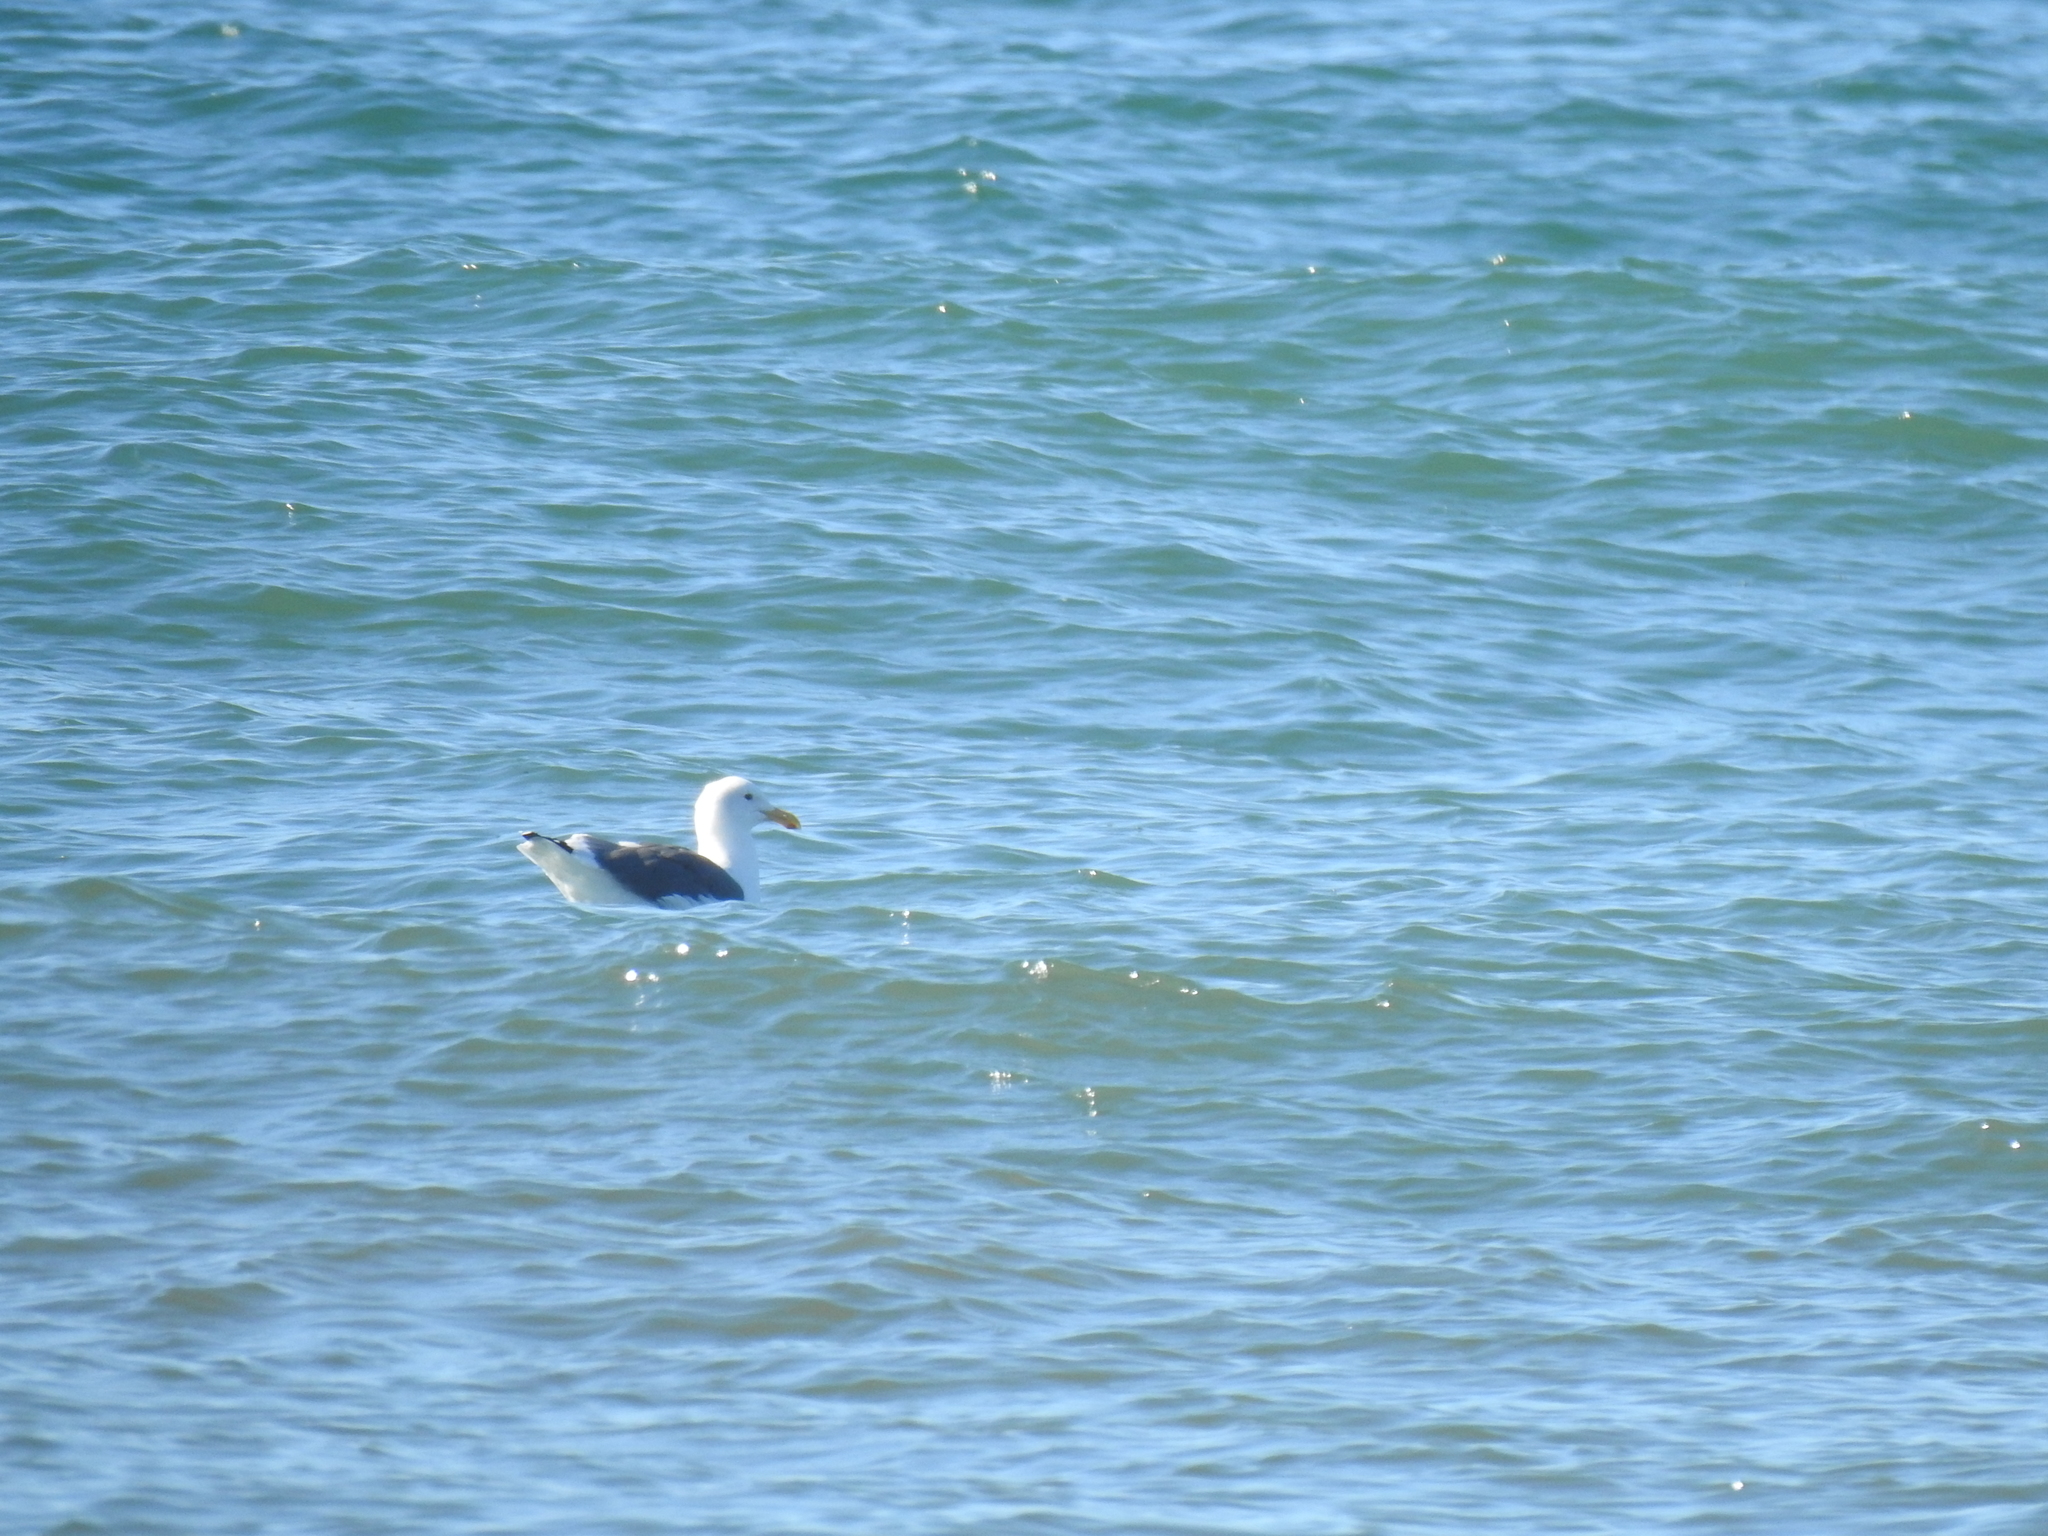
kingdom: Animalia
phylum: Chordata
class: Aves
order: Charadriiformes
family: Laridae
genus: Larus
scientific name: Larus occidentalis
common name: Western gull
